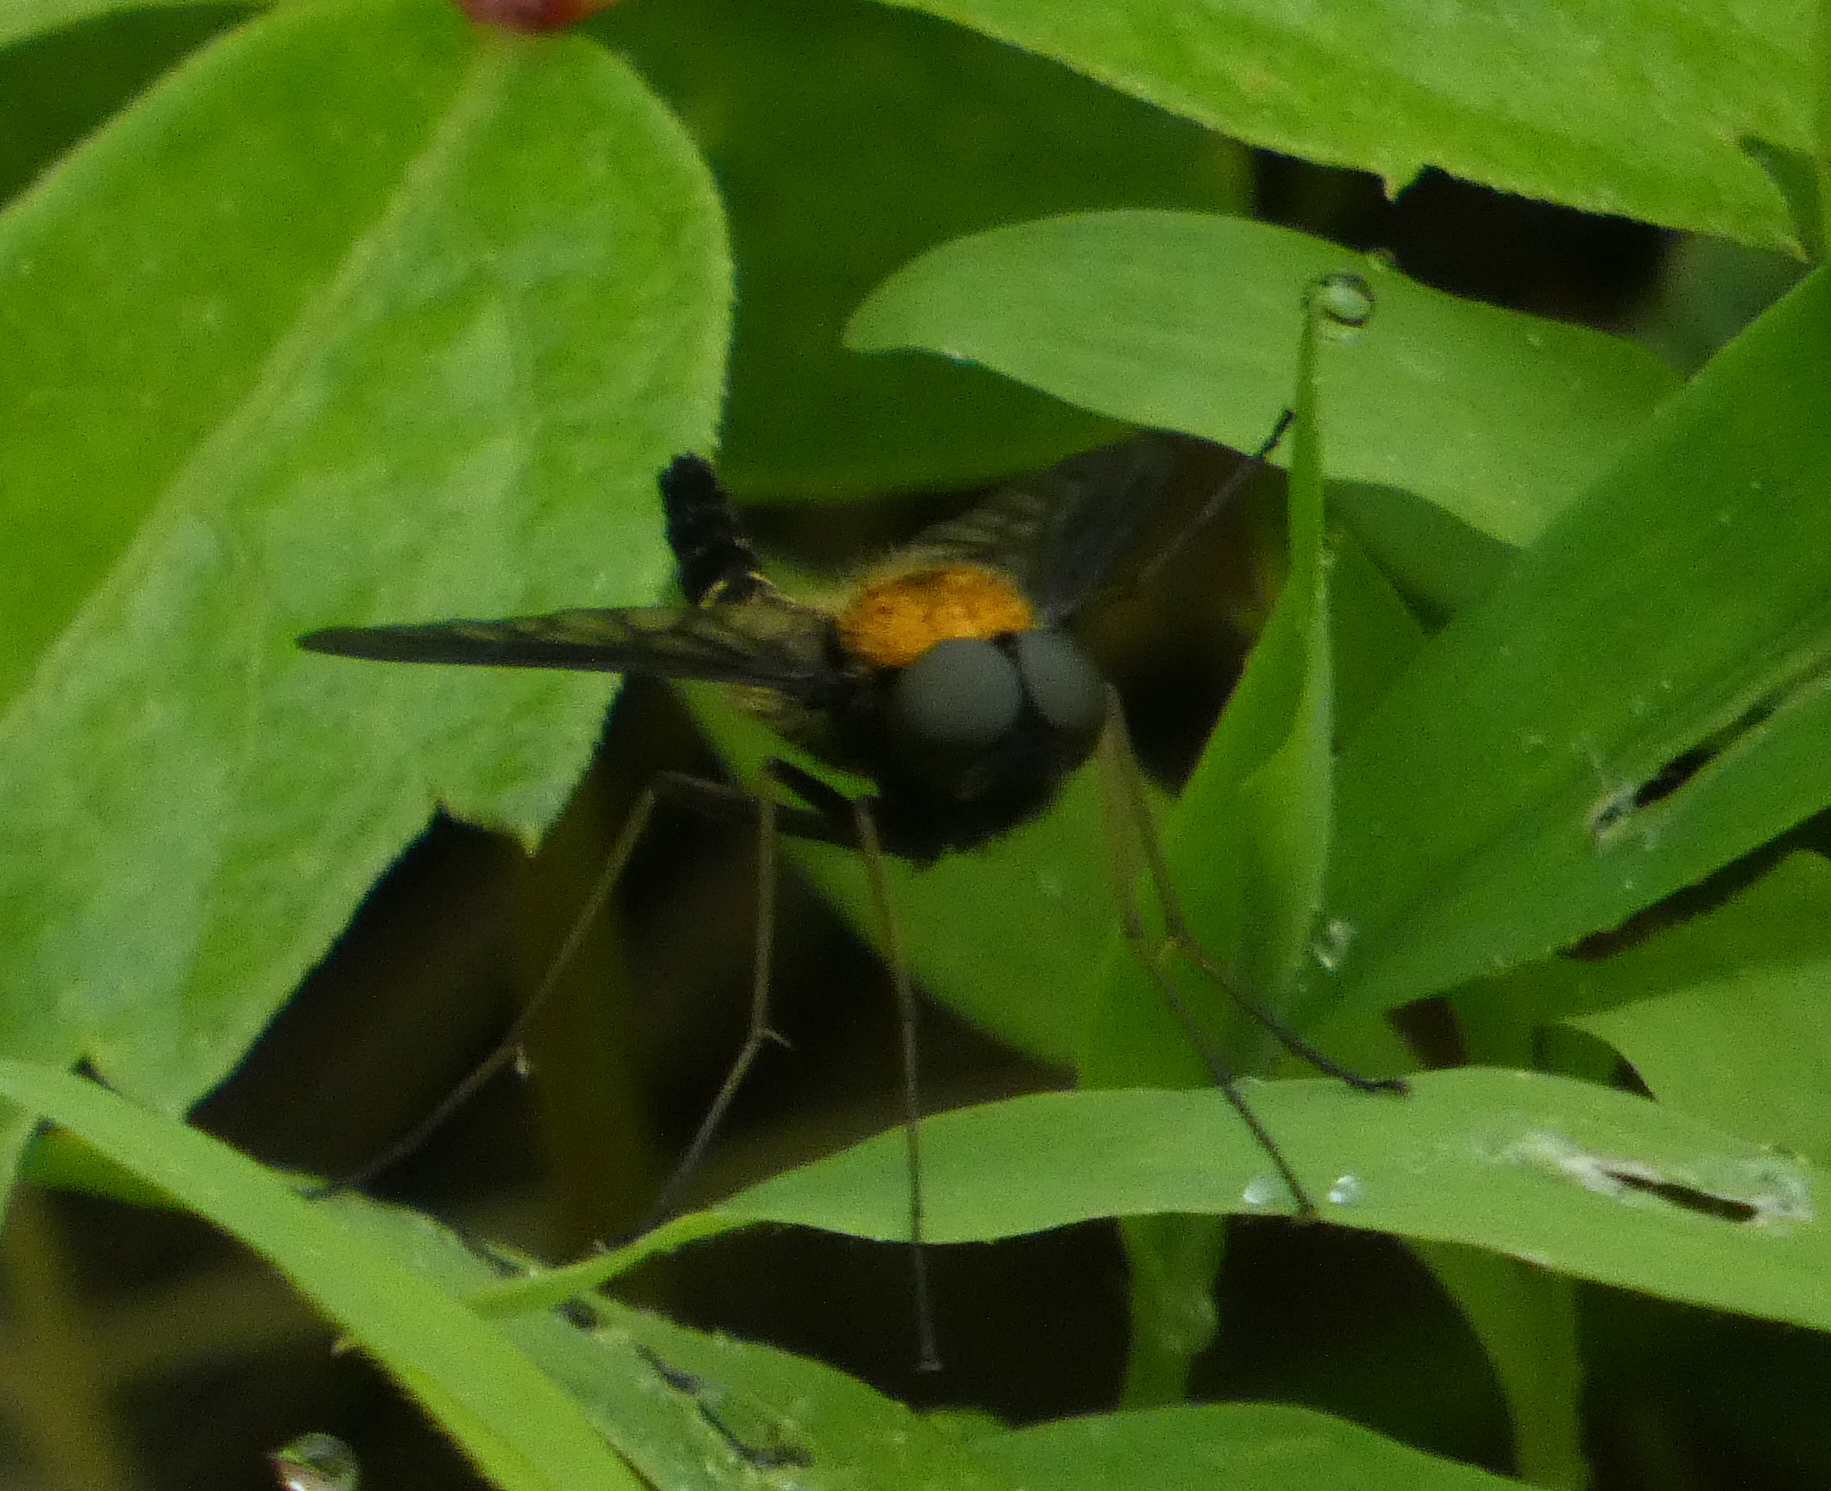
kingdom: Animalia
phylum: Arthropoda
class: Insecta
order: Diptera
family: Rhagionidae
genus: Chrysopilus
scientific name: Chrysopilus thoracicus
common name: Golden-backed snipe fly
